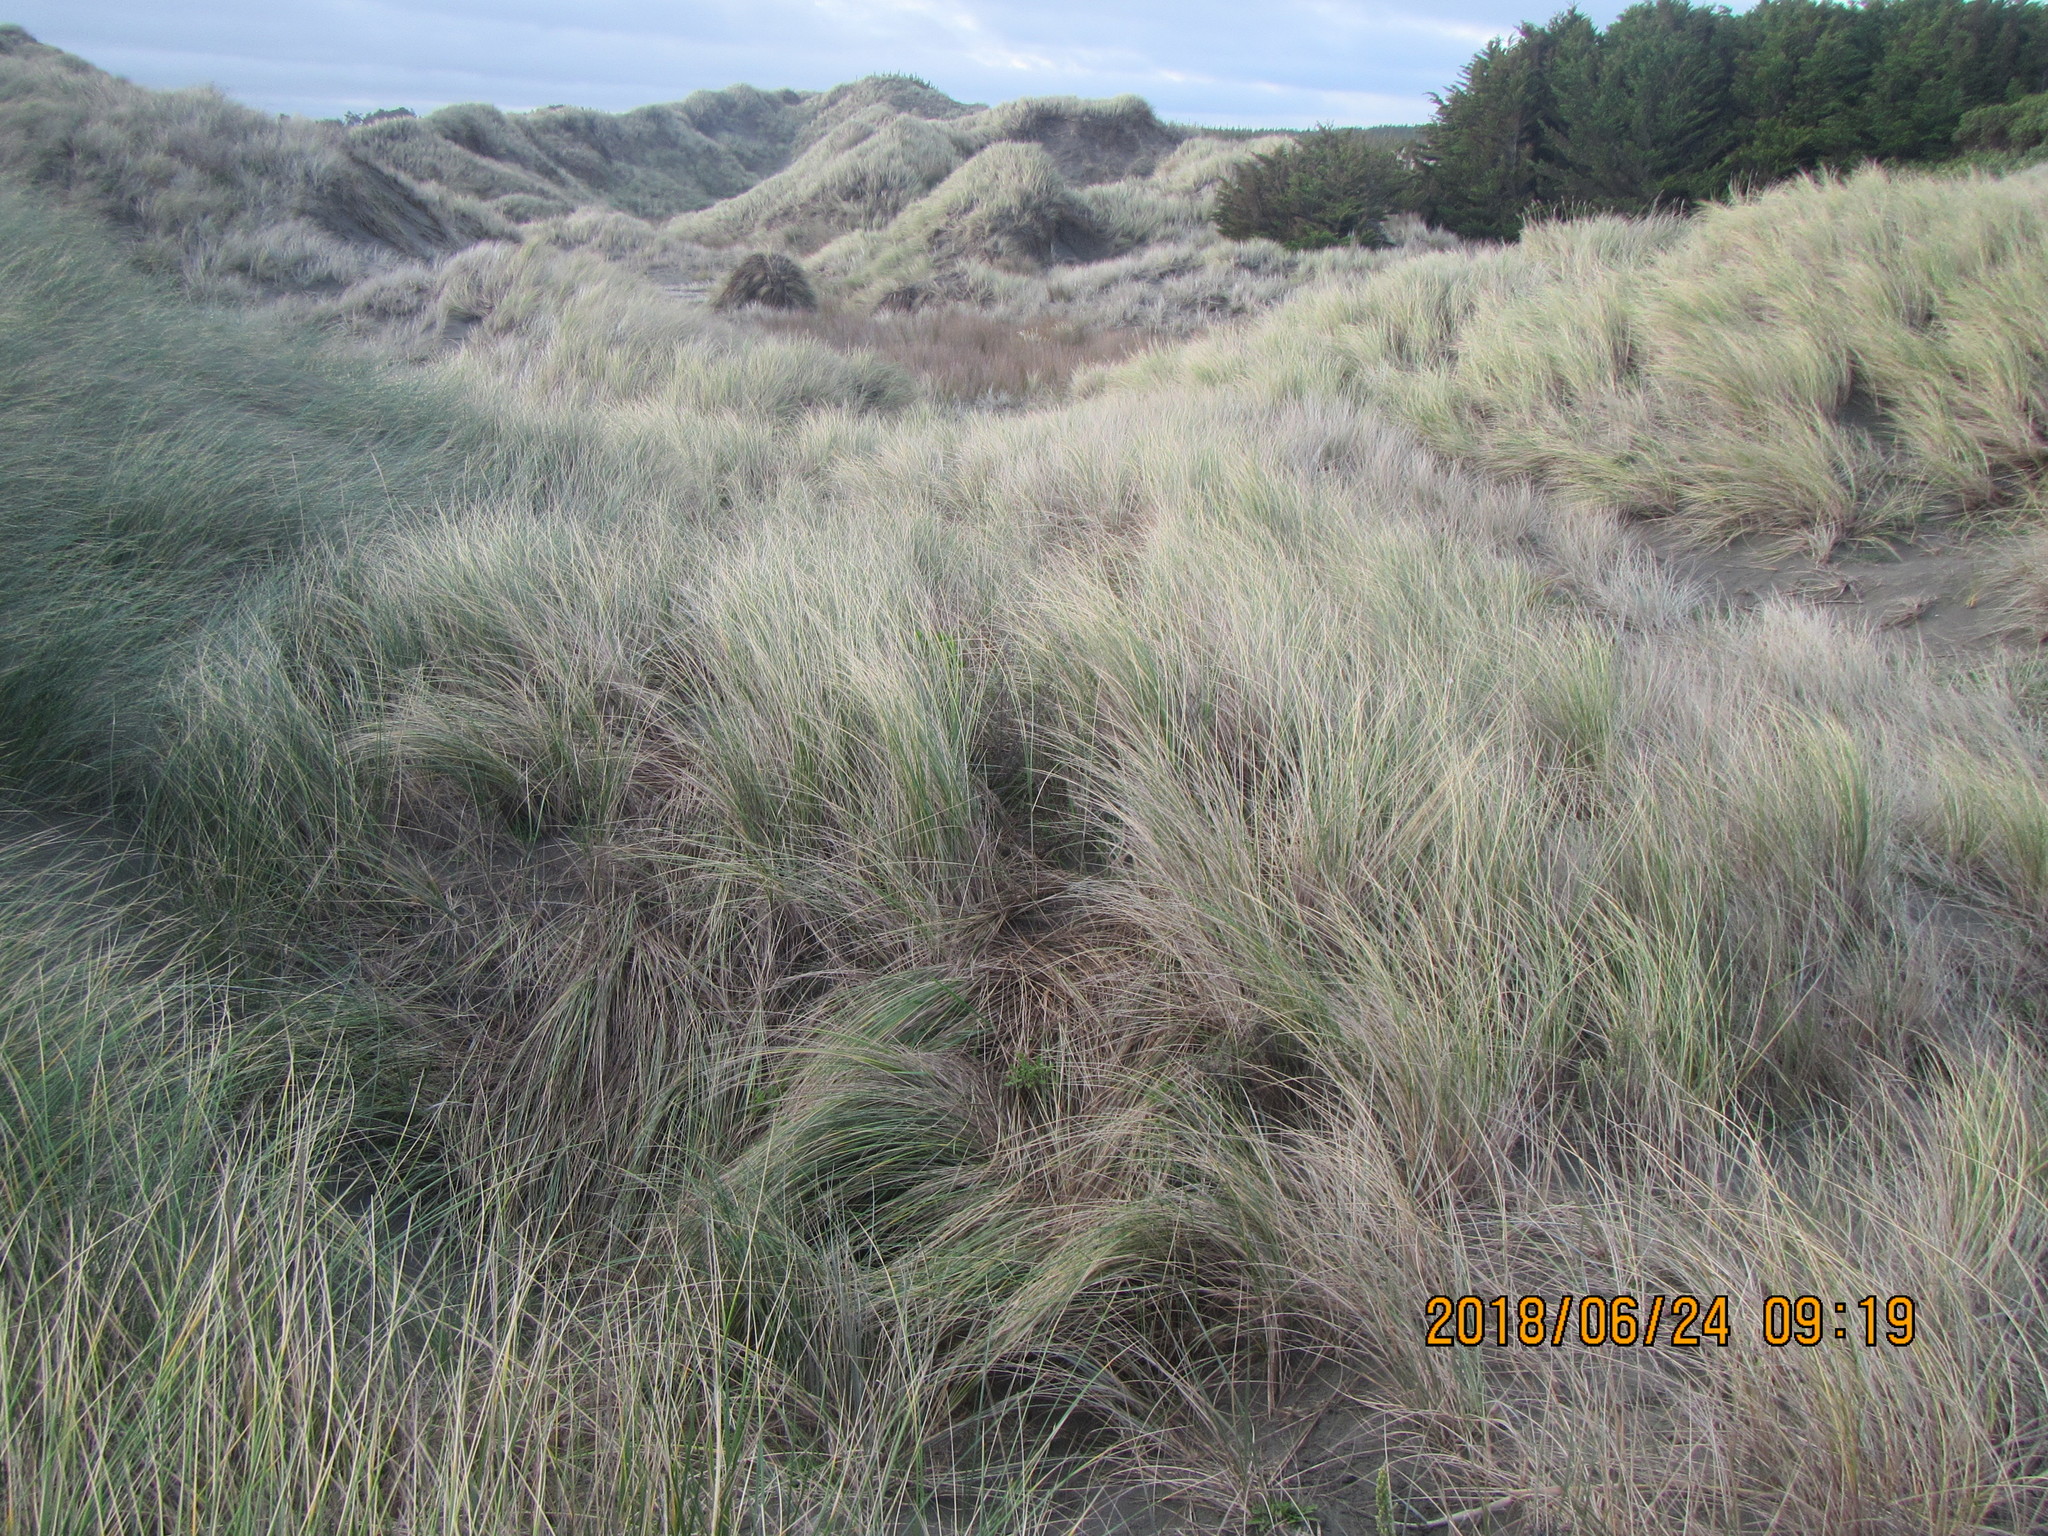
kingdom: Plantae
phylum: Tracheophyta
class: Liliopsida
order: Poales
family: Poaceae
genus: Calamagrostis
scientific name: Calamagrostis arenaria
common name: European beachgrass
